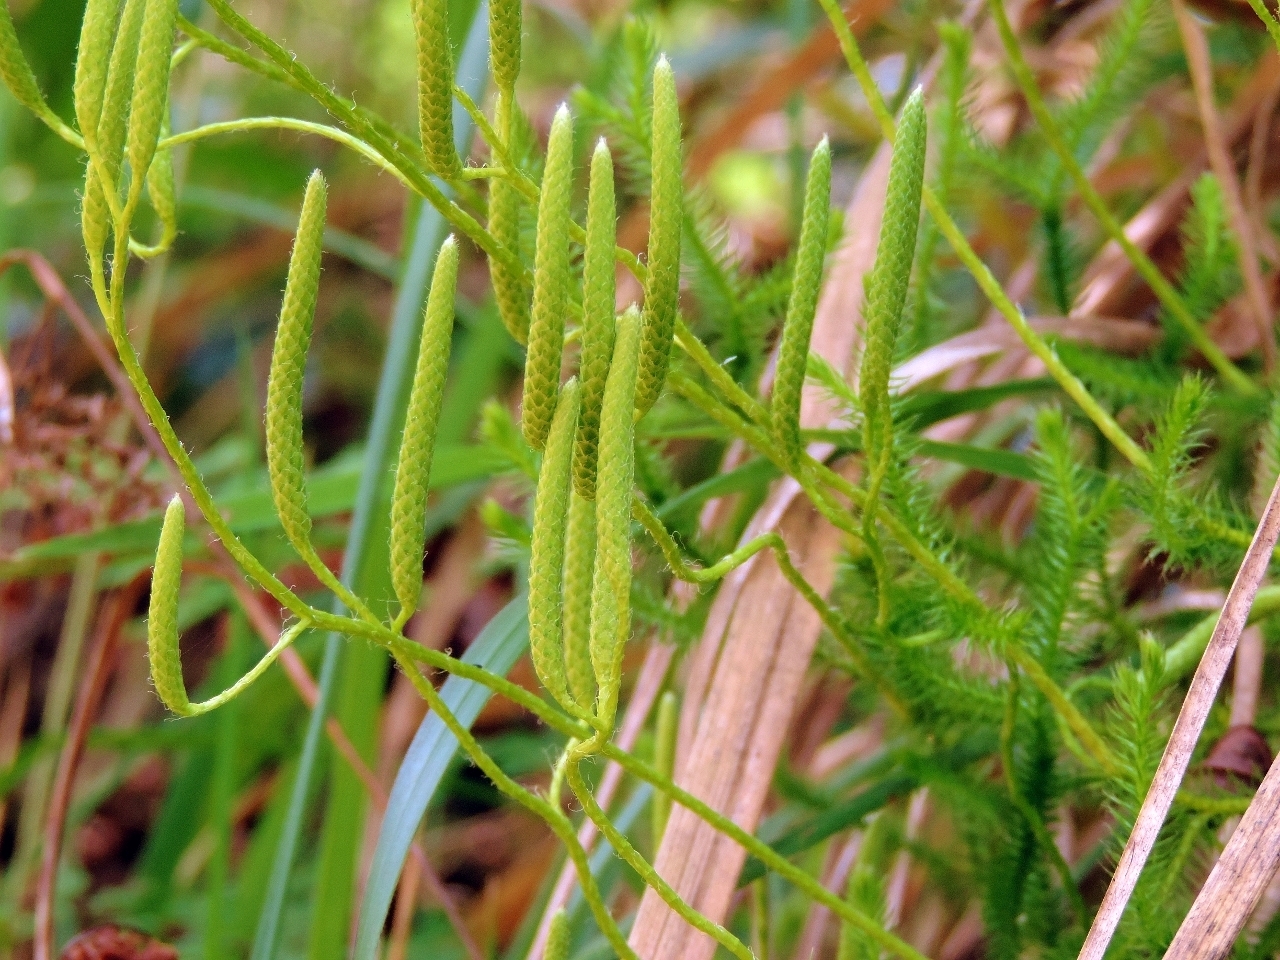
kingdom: Plantae
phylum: Tracheophyta
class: Lycopodiopsida
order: Lycopodiales
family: Lycopodiaceae
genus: Lycopodium
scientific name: Lycopodium clavatum
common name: Stag's-horn clubmoss
